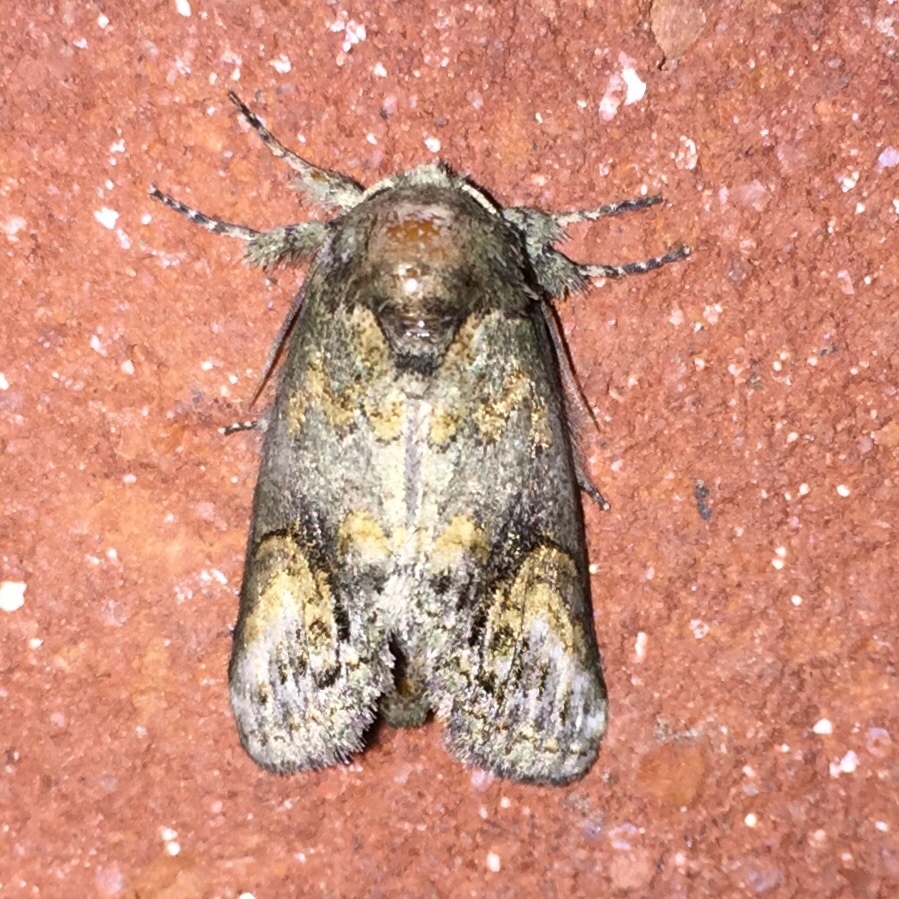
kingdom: Animalia
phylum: Arthropoda
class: Insecta
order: Lepidoptera
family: Notodontidae
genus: Rifargia
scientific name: Rifargia
